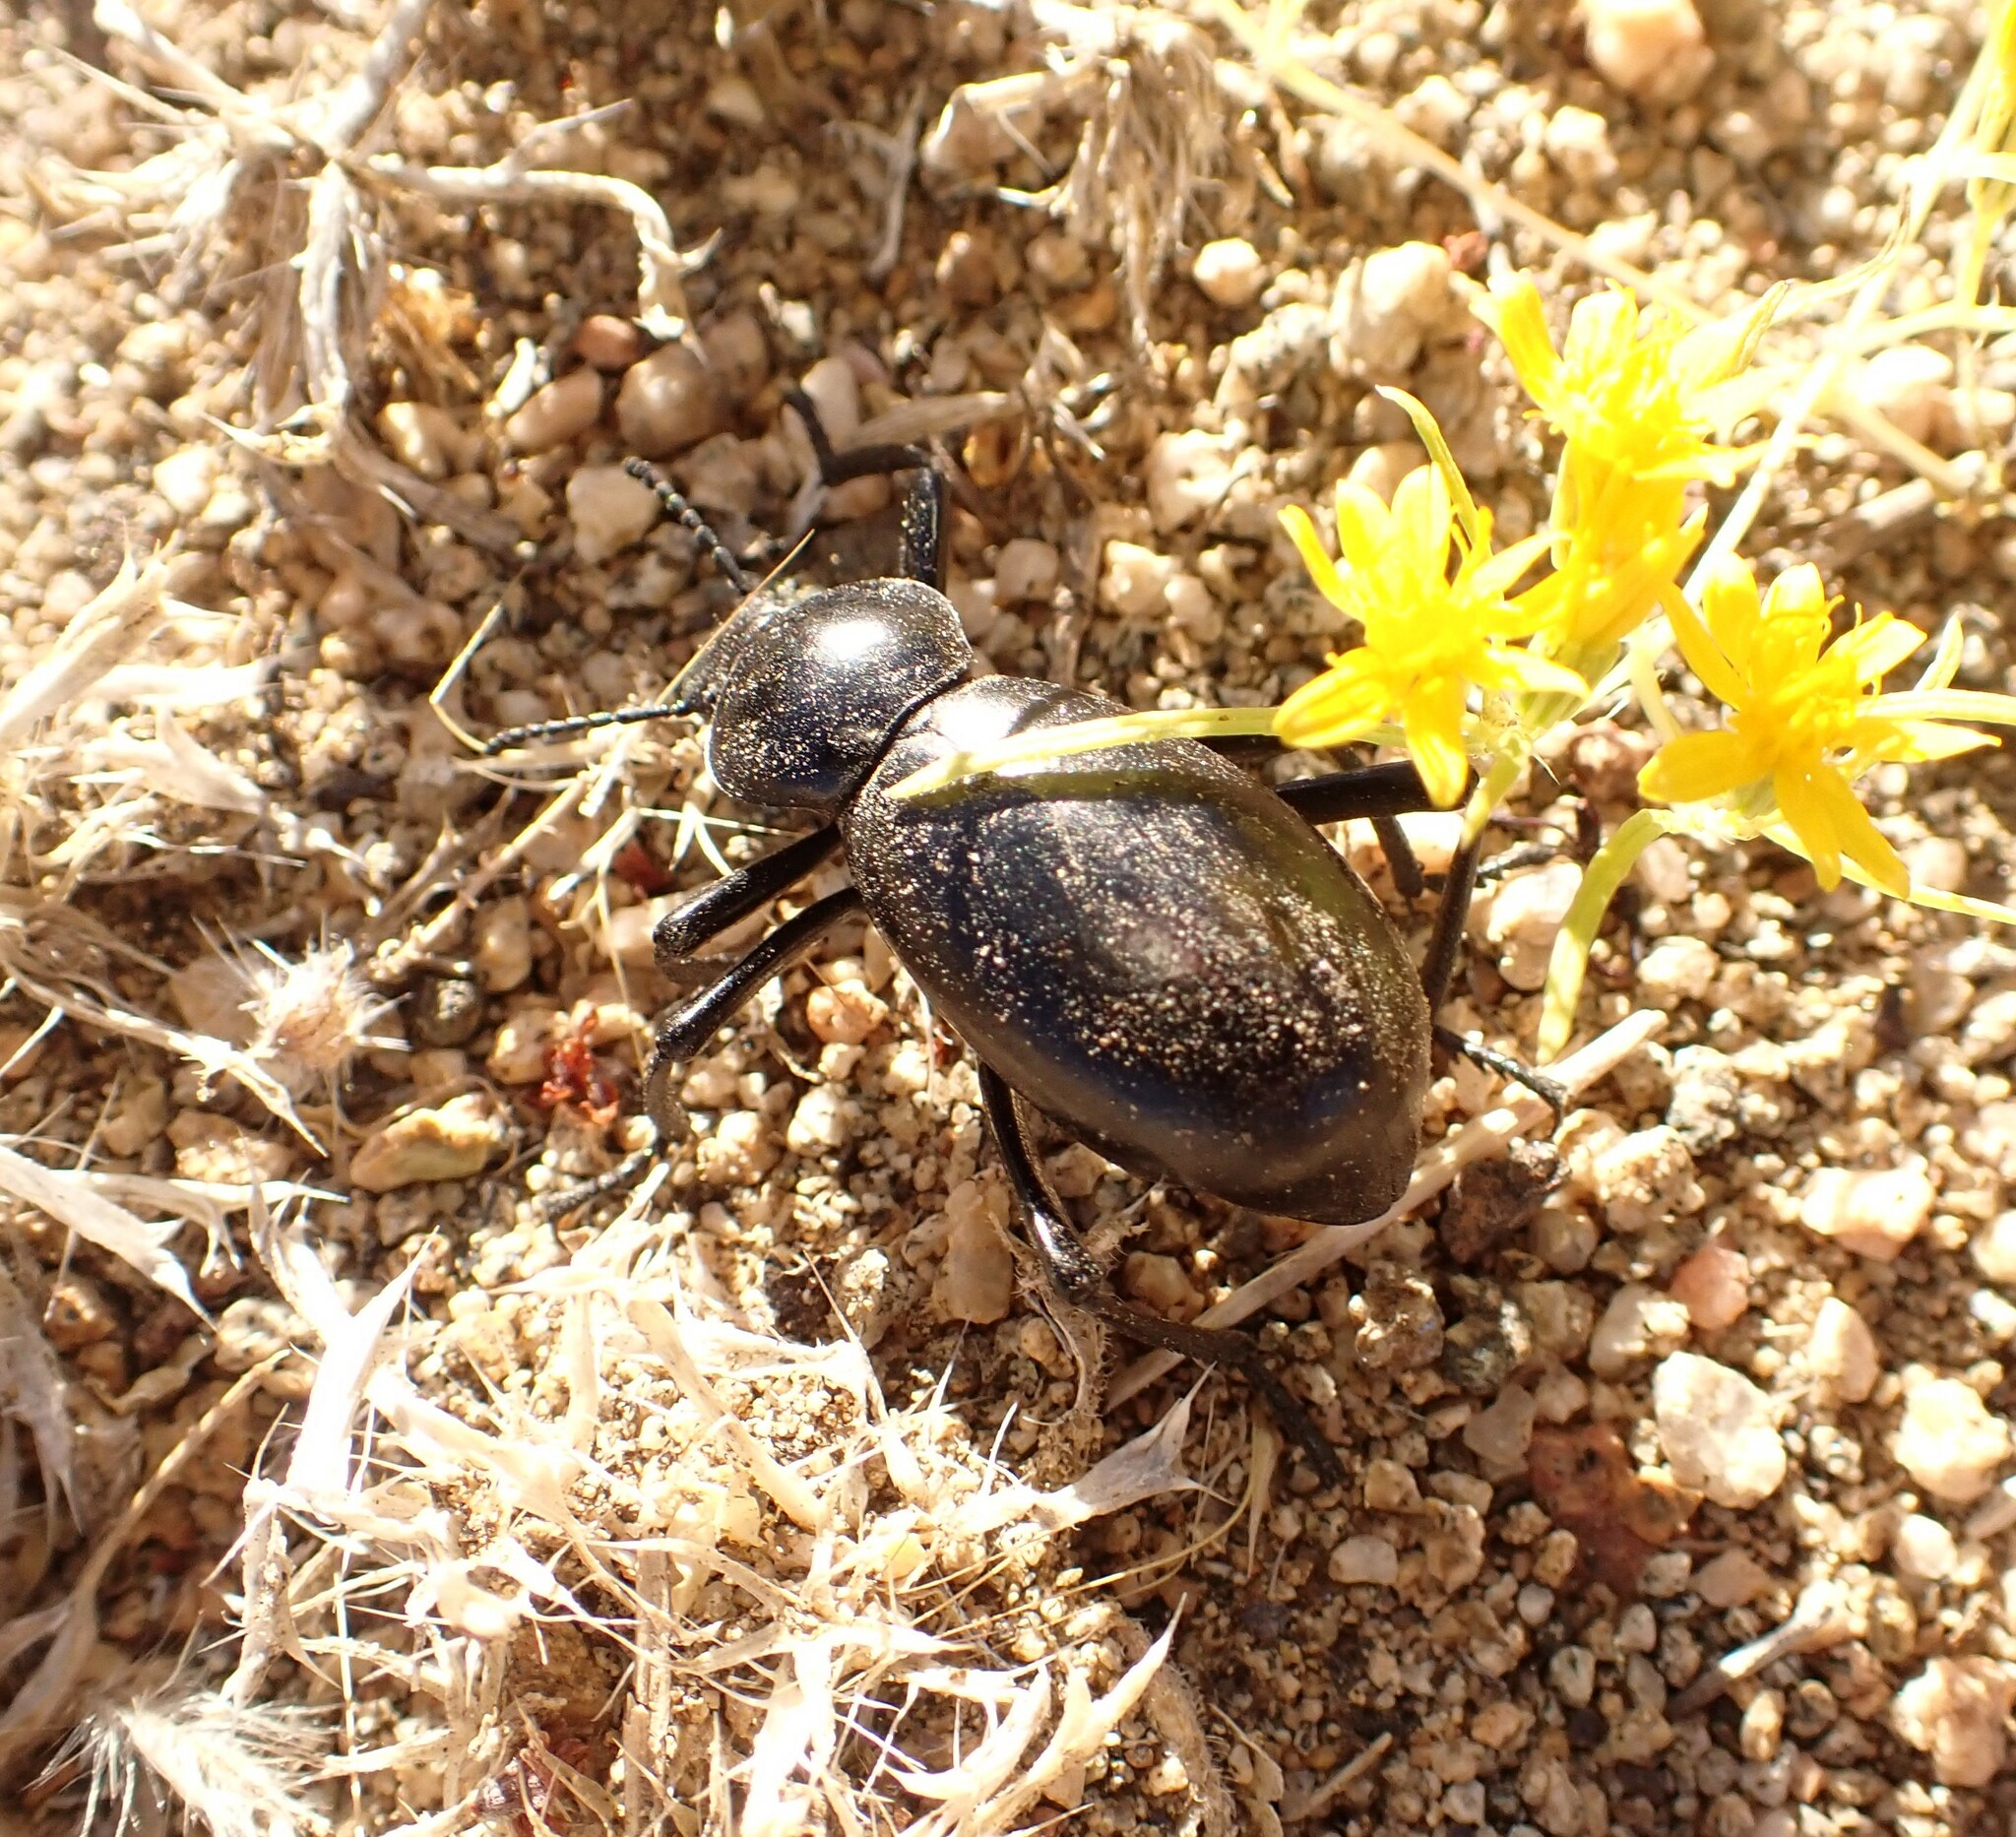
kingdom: Animalia
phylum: Arthropoda
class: Insecta
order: Coleoptera
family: Tenebrionidae
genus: Eleodes
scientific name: Eleodes grandicollis
